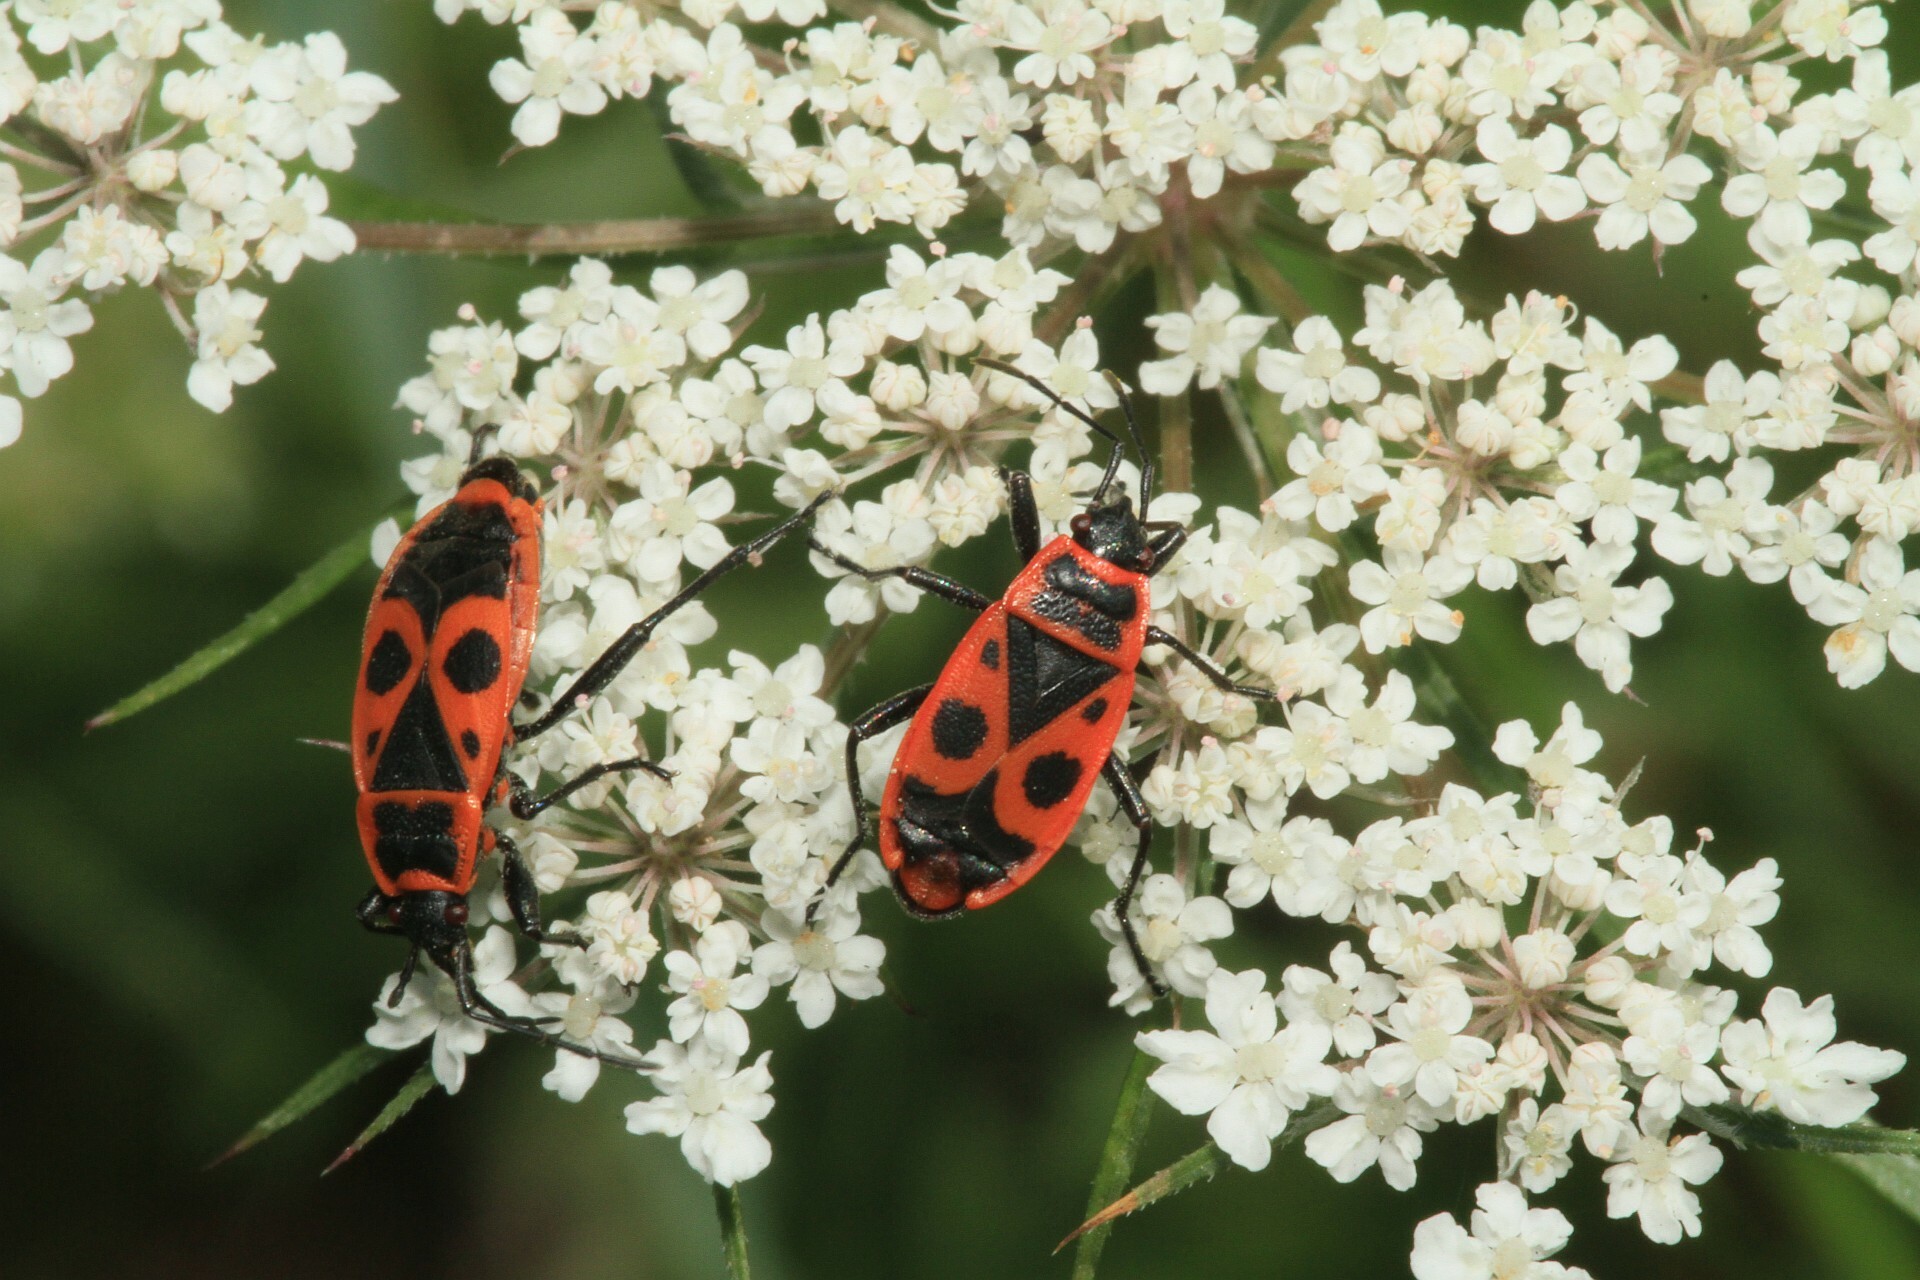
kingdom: Animalia
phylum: Arthropoda
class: Insecta
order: Hemiptera
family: Pyrrhocoridae
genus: Pyrrhocoris
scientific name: Pyrrhocoris apterus
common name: Firebug
